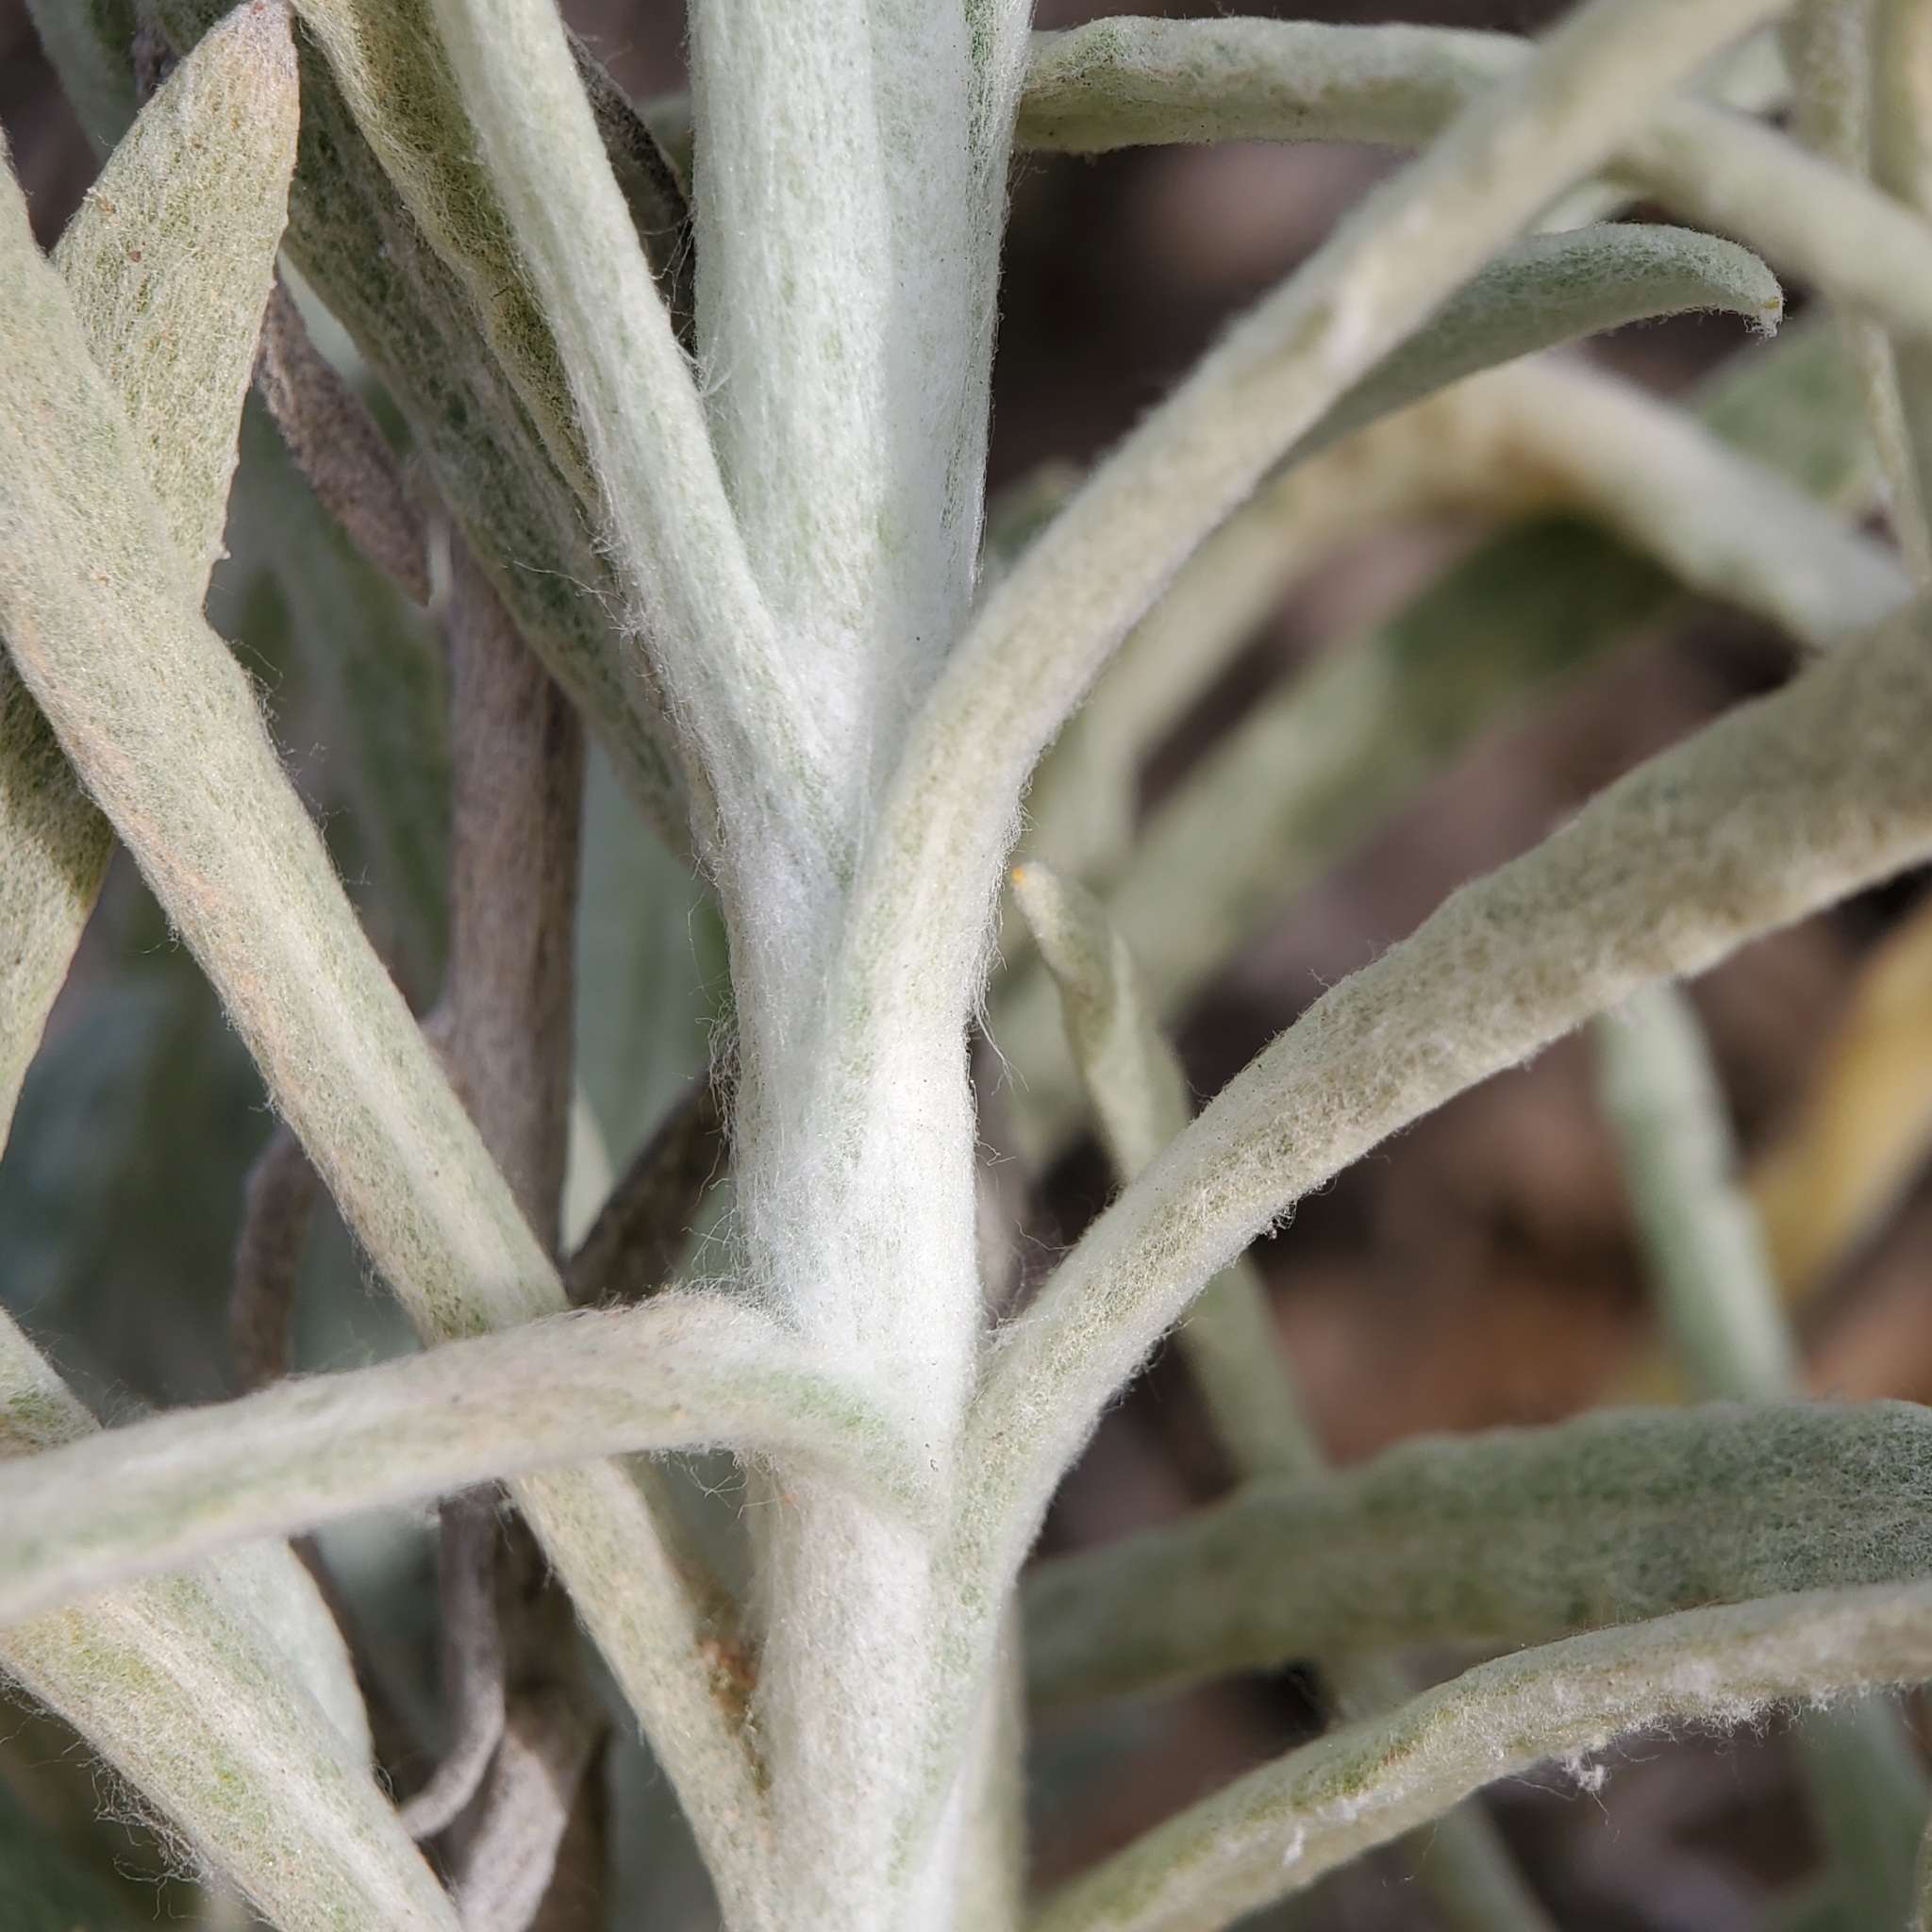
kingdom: Plantae
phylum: Tracheophyta
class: Magnoliopsida
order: Asterales
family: Asteraceae
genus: Pseudognaphalium
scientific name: Pseudognaphalium beneolens
